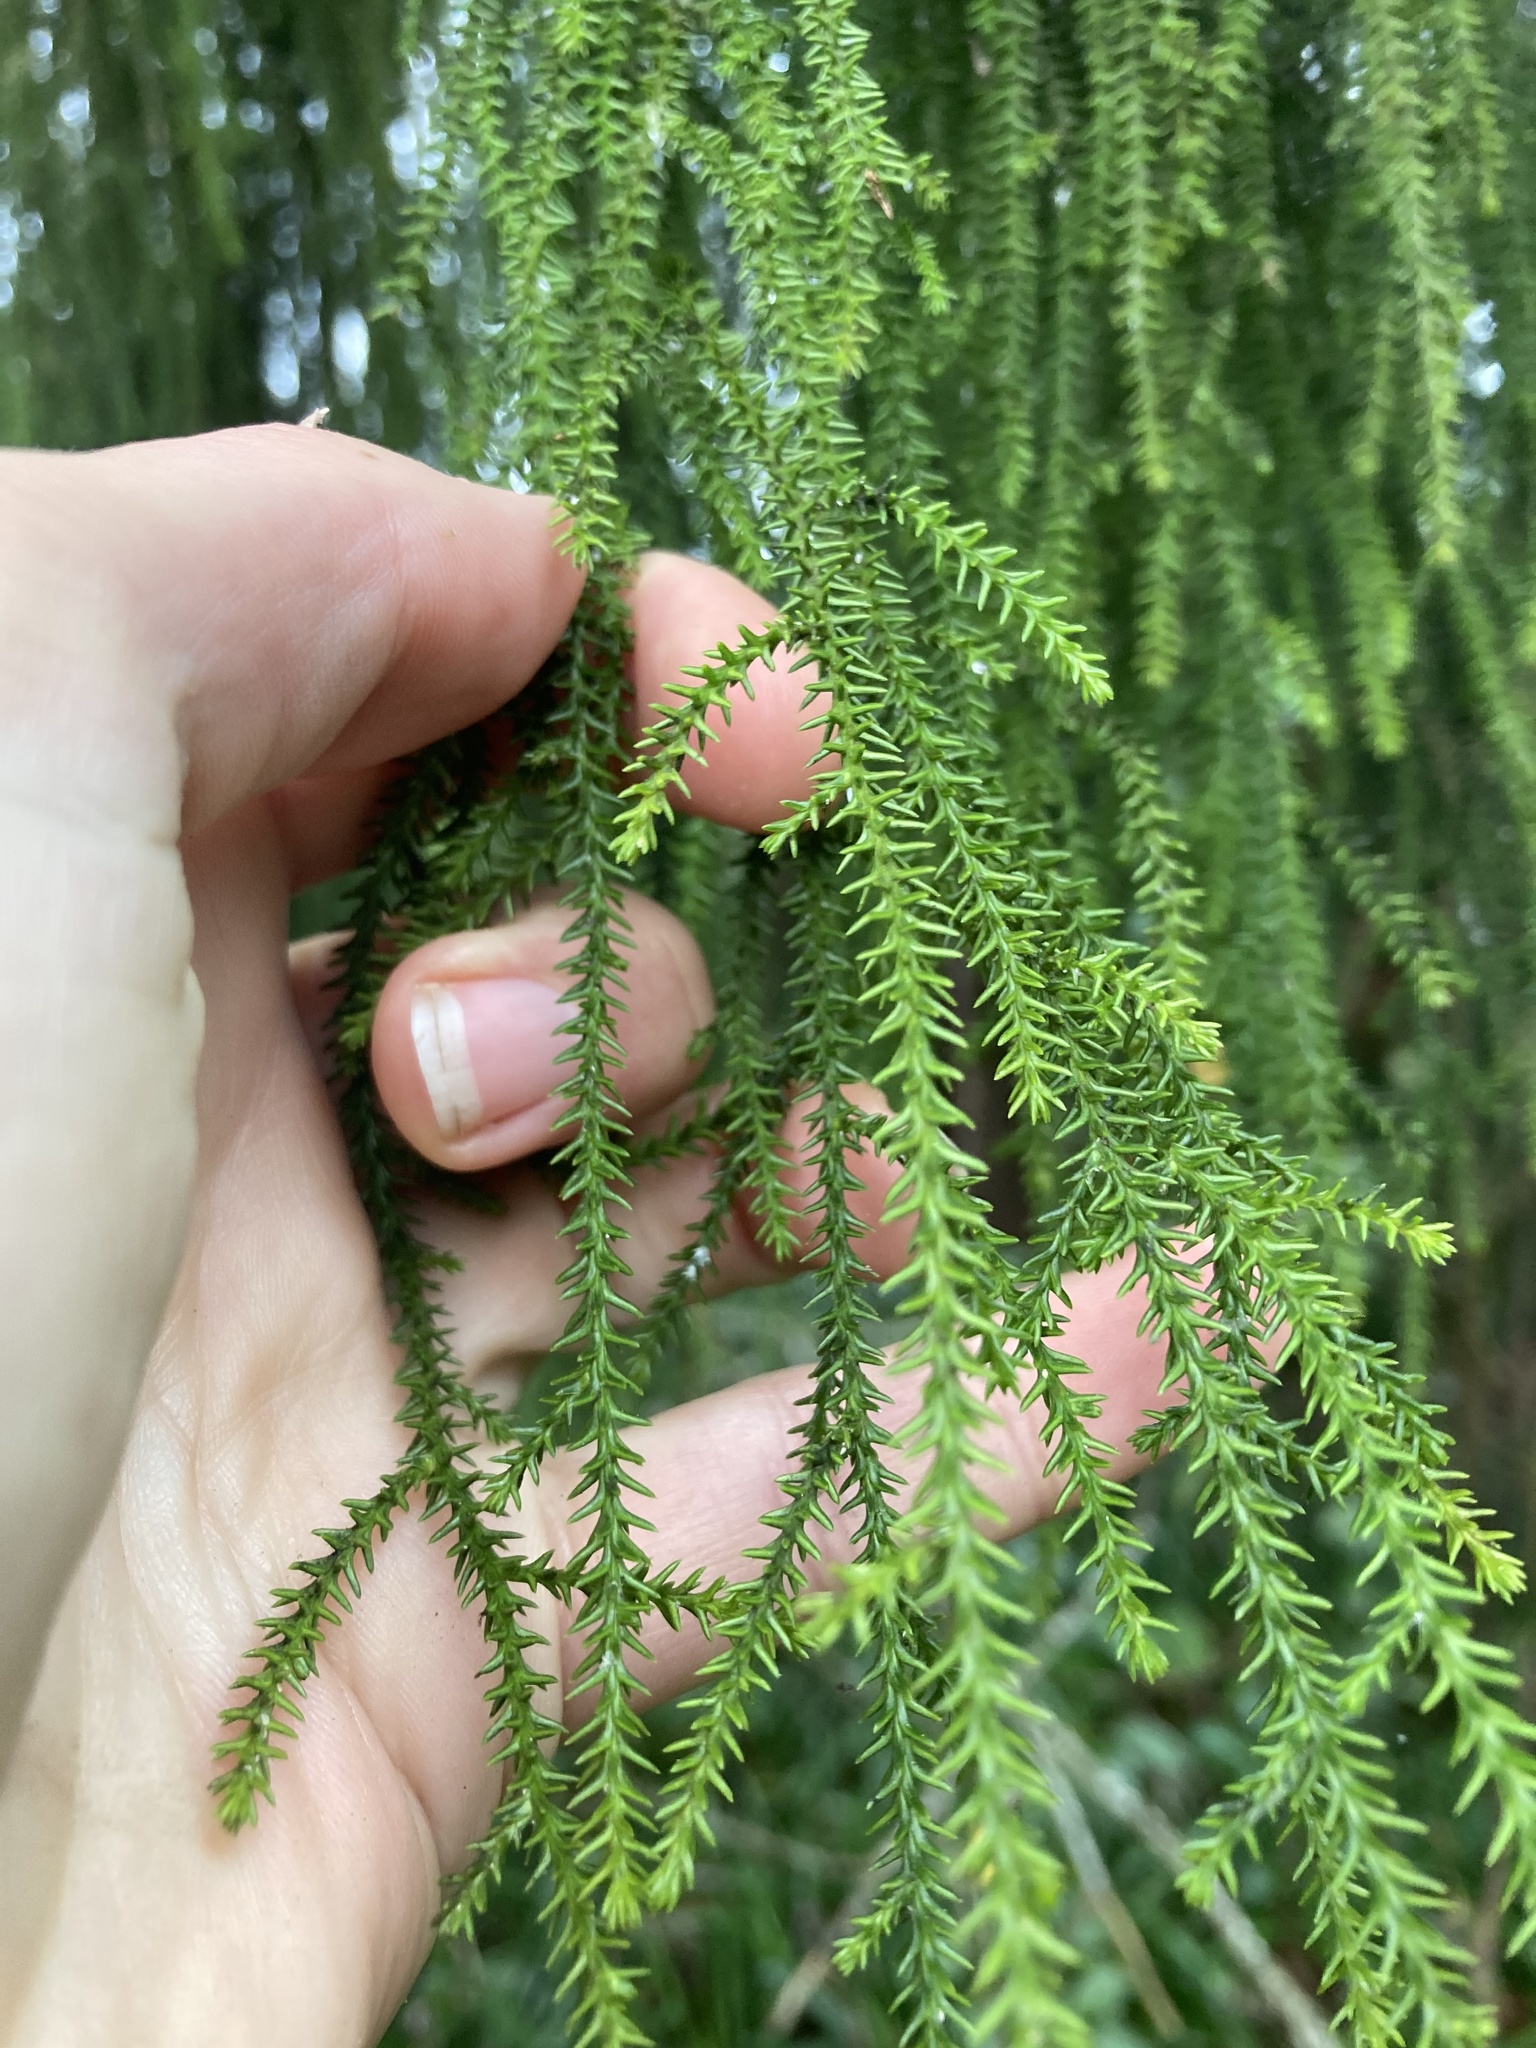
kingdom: Plantae
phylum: Tracheophyta
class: Pinopsida
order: Pinales
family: Podocarpaceae
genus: Dacrydium
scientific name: Dacrydium cupressinum
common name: Red pine
